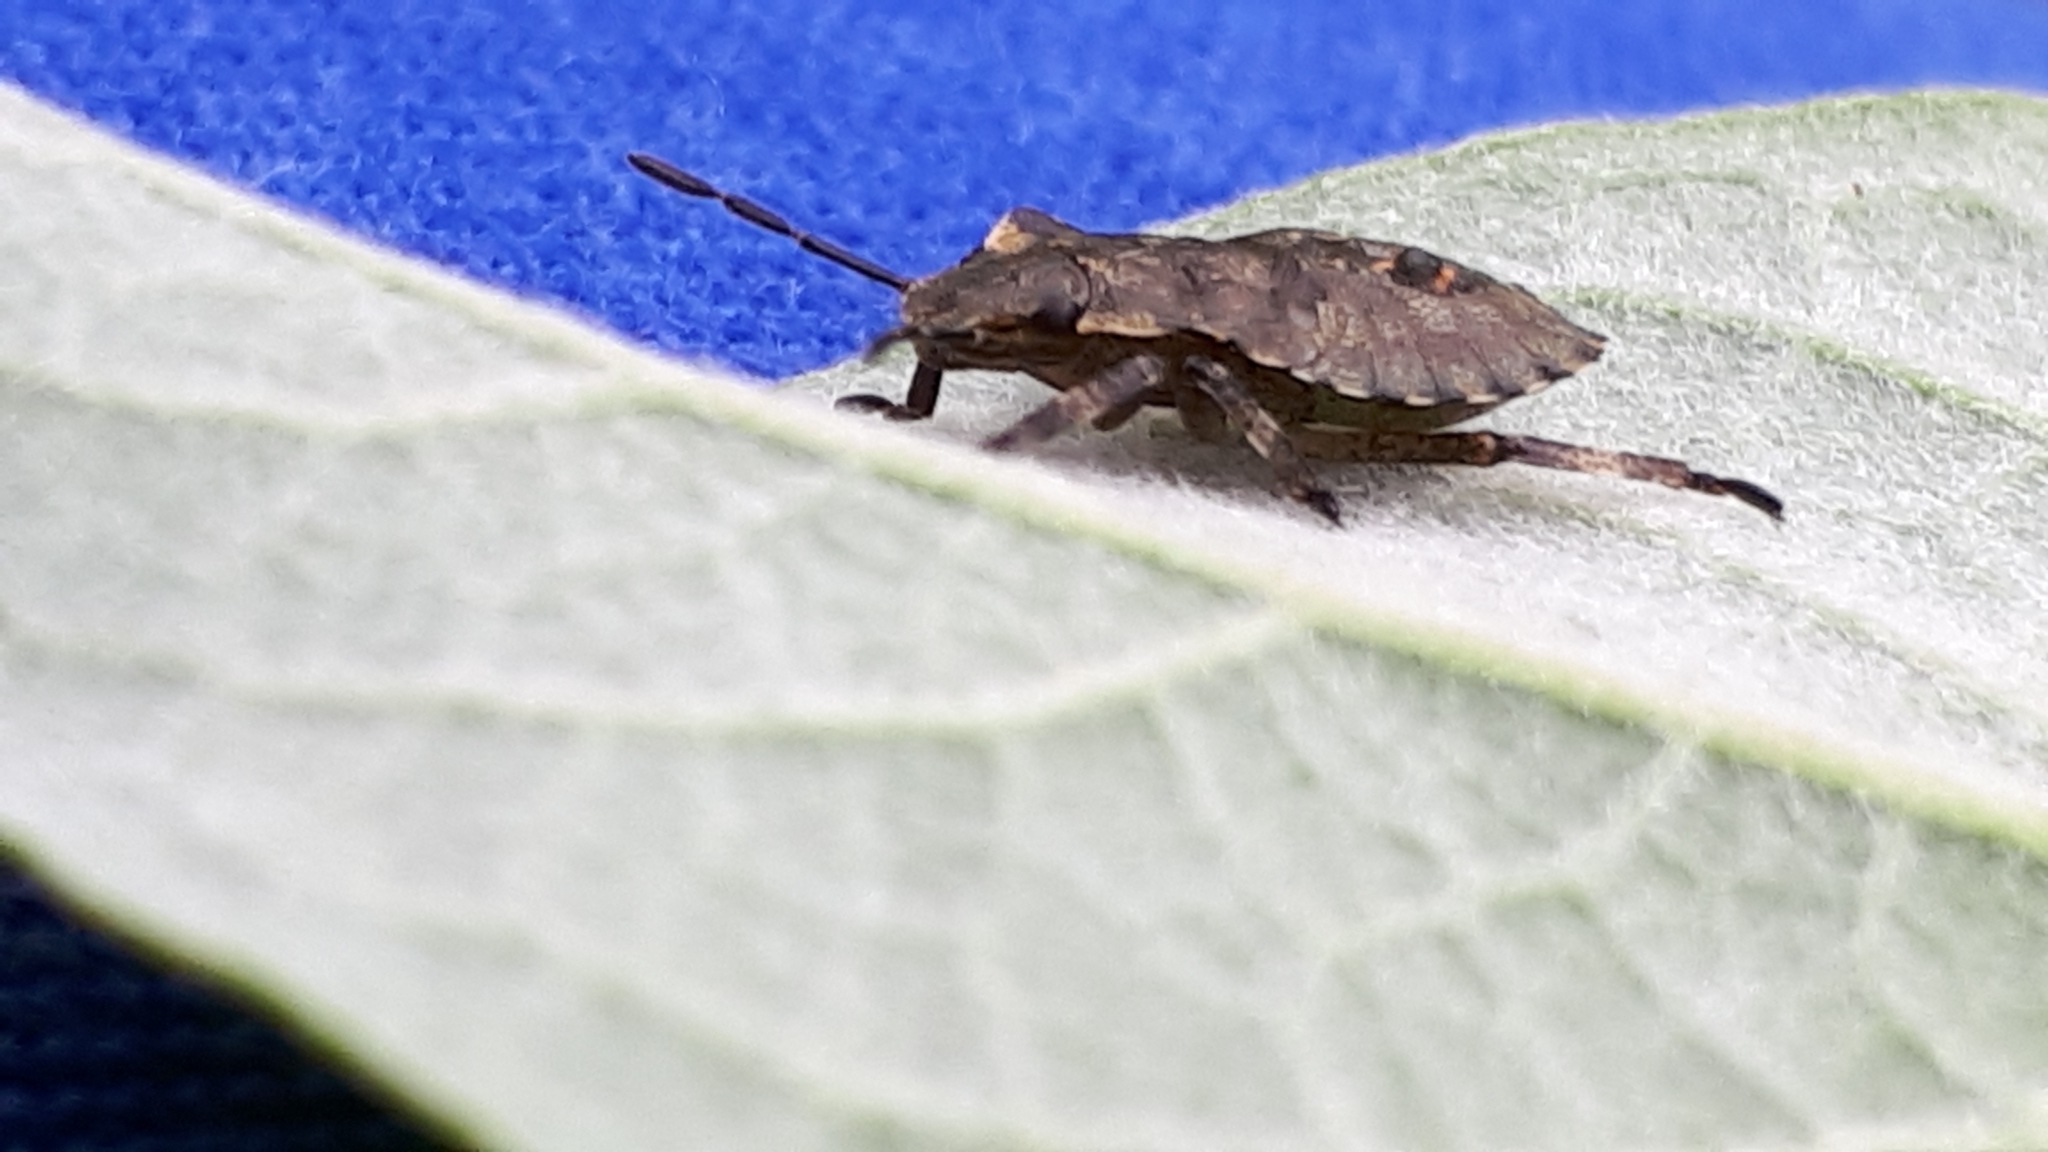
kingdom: Animalia
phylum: Arthropoda
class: Insecta
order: Hemiptera
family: Pentatomidae
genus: Pentatoma
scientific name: Pentatoma rufipes
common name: Forest bug
